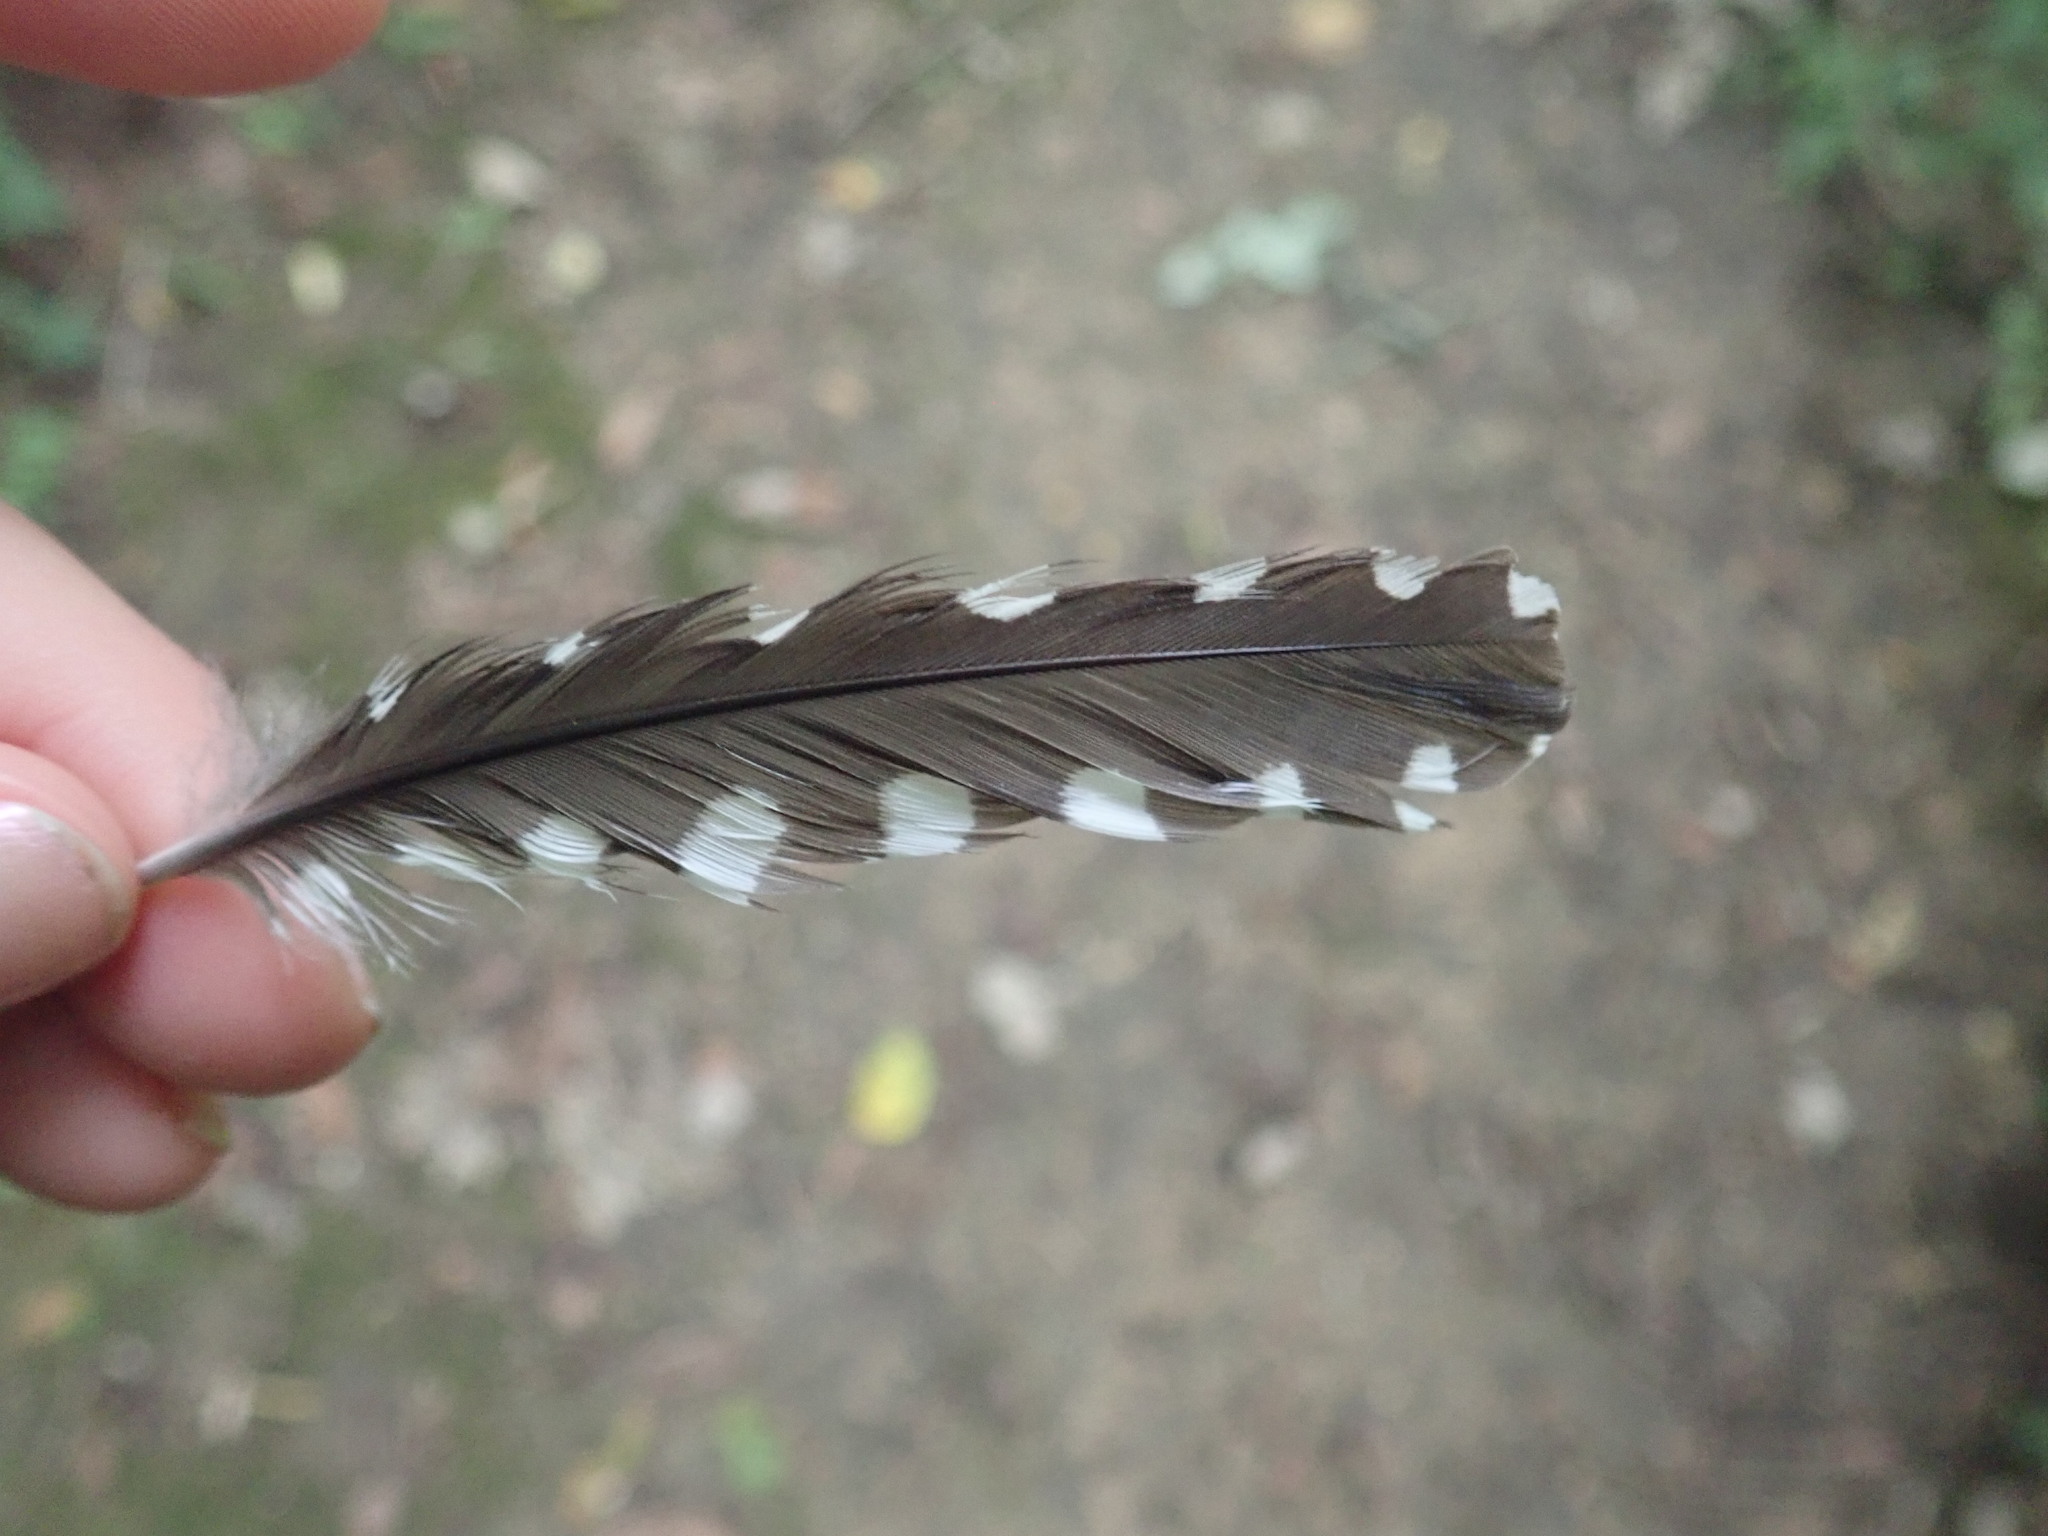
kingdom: Animalia
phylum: Chordata
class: Aves
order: Piciformes
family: Picidae
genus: Melanerpes
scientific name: Melanerpes carolinus
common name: Red-bellied woodpecker
